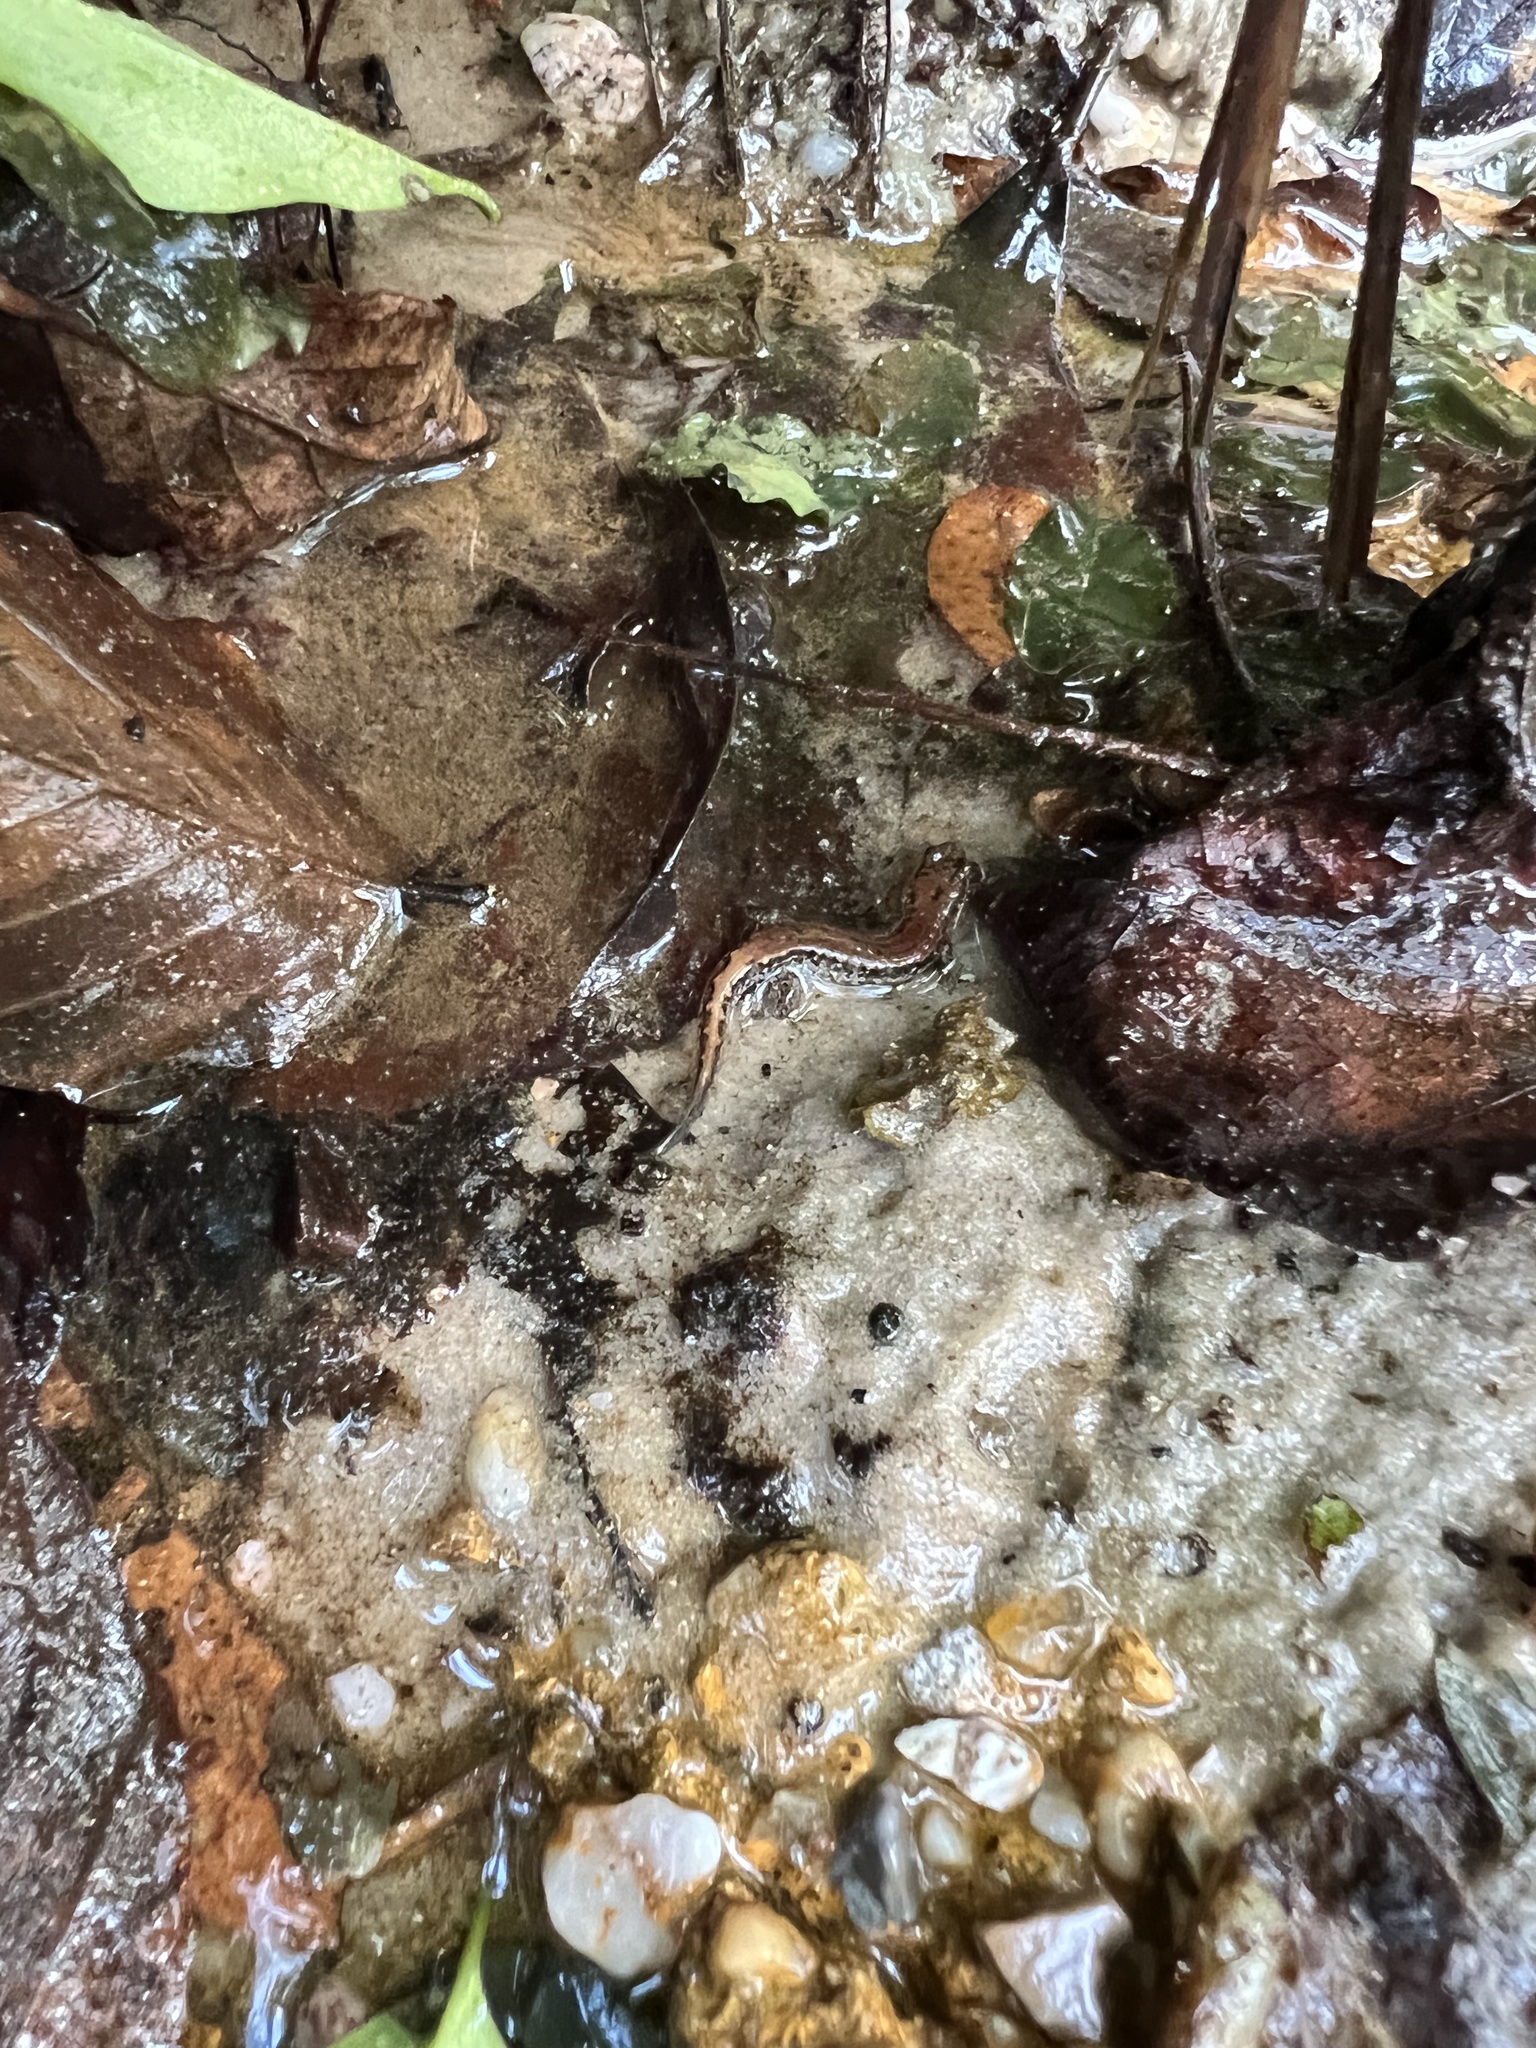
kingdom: Animalia
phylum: Chordata
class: Amphibia
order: Caudata
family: Plethodontidae
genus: Desmognathus
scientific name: Desmognathus conanti
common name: Spotted dusky salamander
